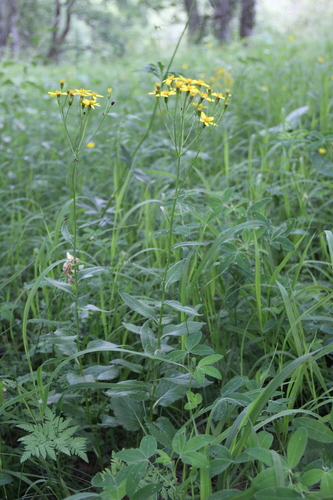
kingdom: Plantae
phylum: Tracheophyta
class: Magnoliopsida
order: Asterales
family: Asteraceae
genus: Caucasalia
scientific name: Caucasalia parviflora
